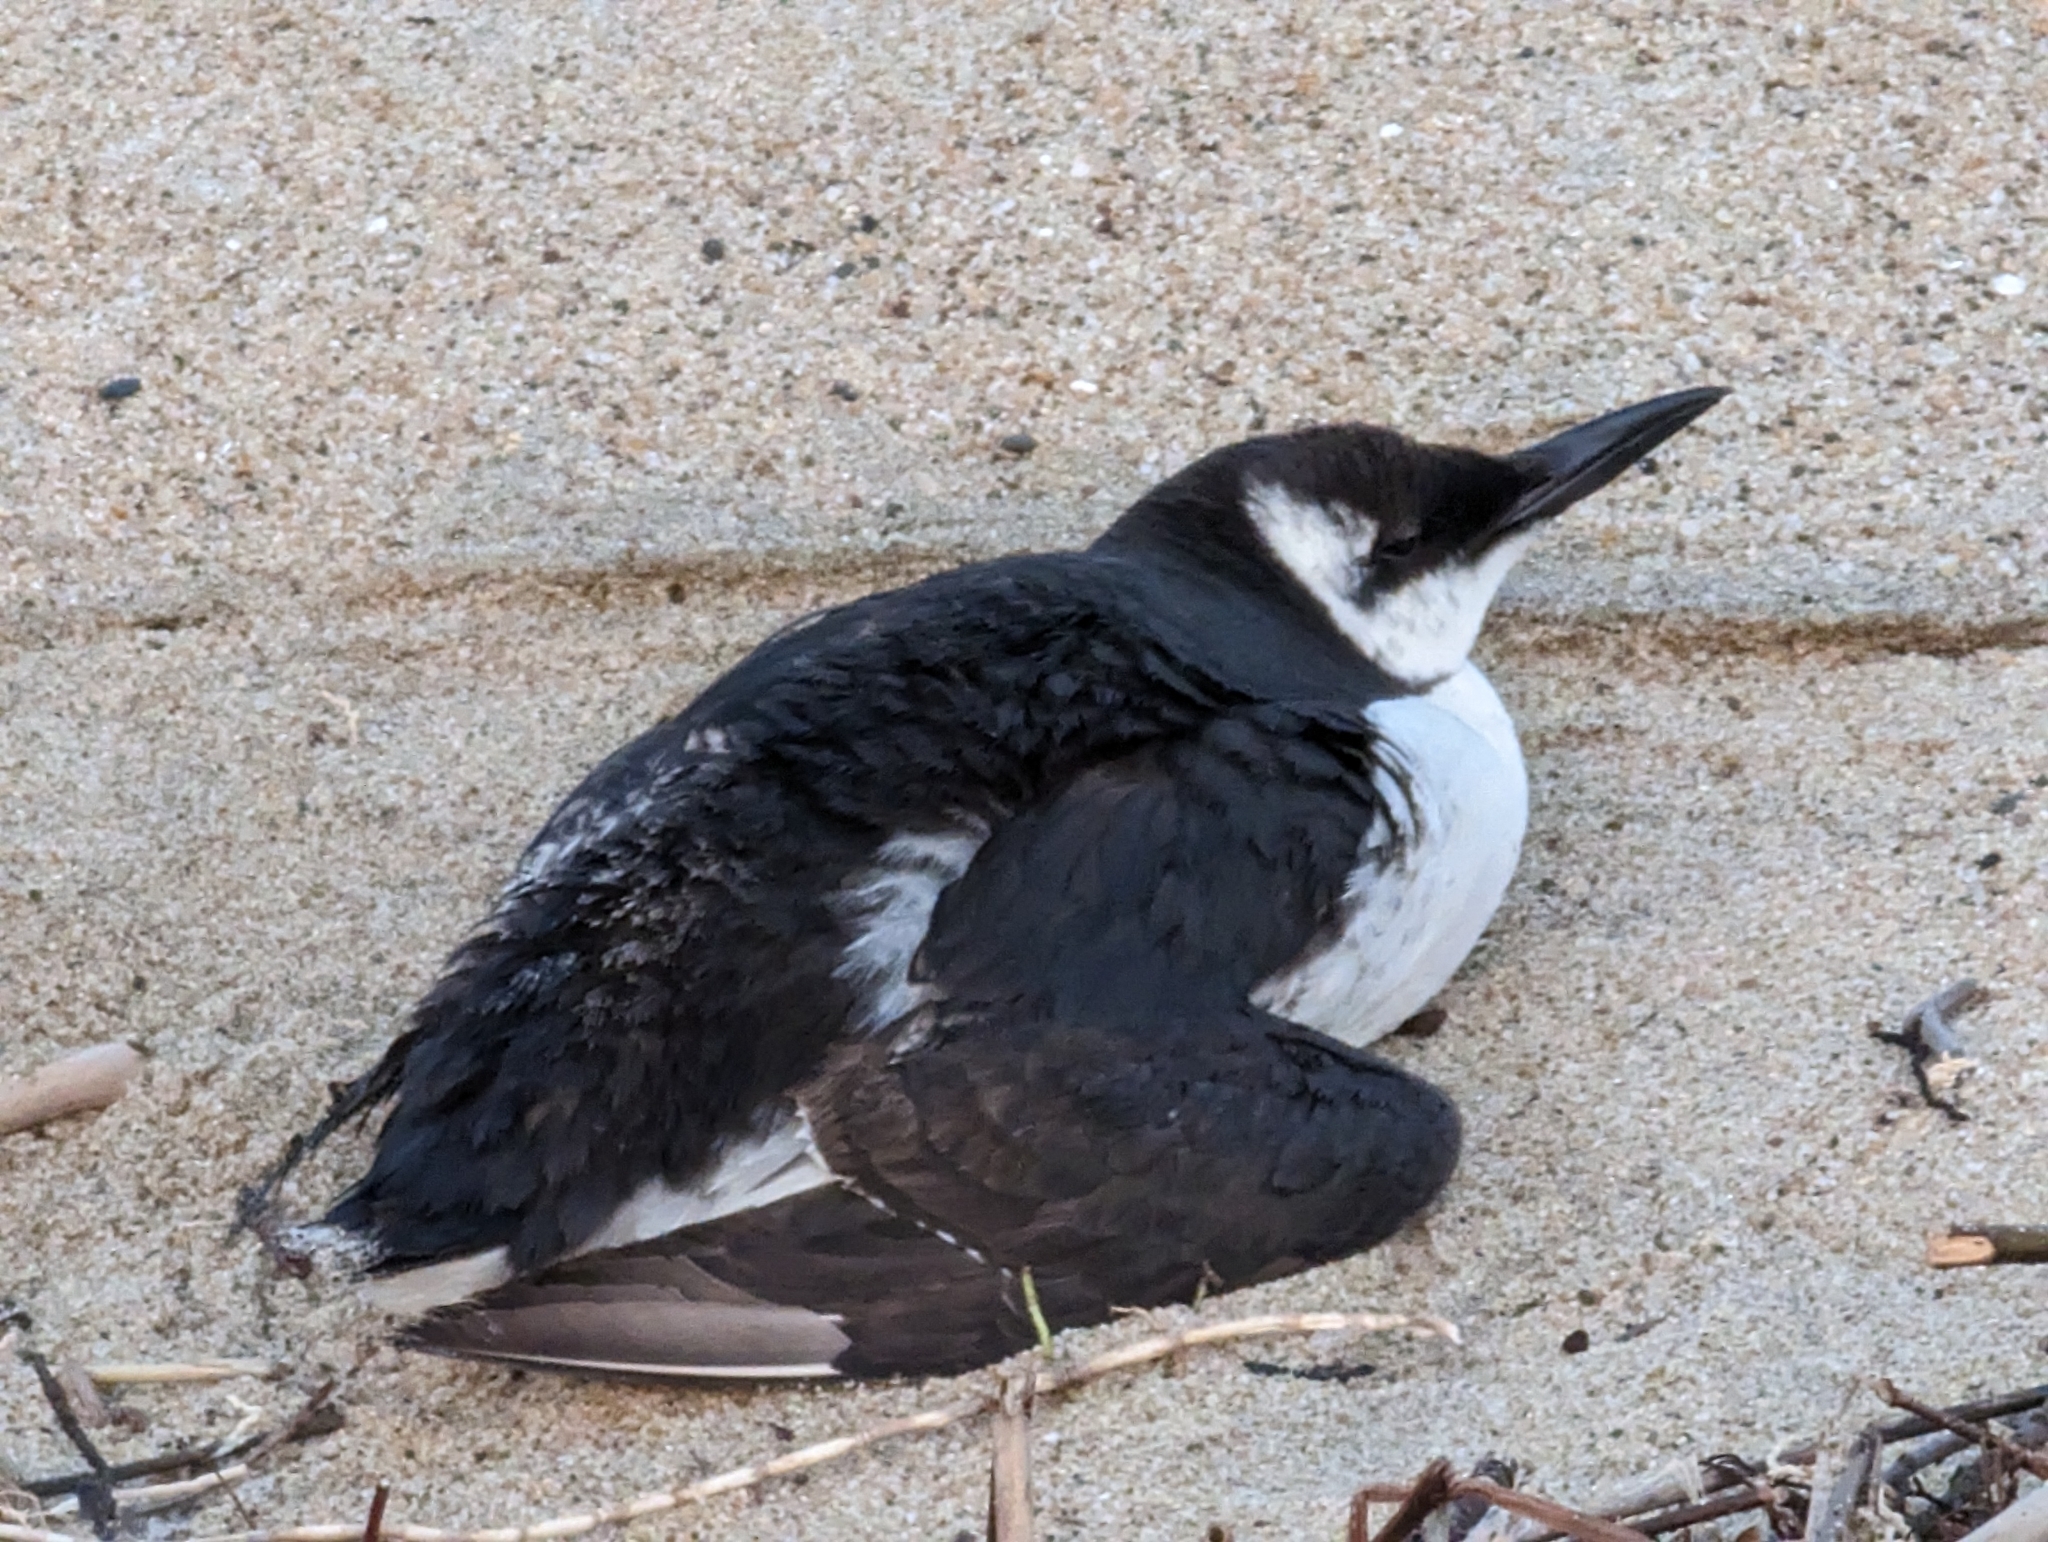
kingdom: Animalia
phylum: Chordata
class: Aves
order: Charadriiformes
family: Alcidae
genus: Uria
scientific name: Uria aalge
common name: Common murre
